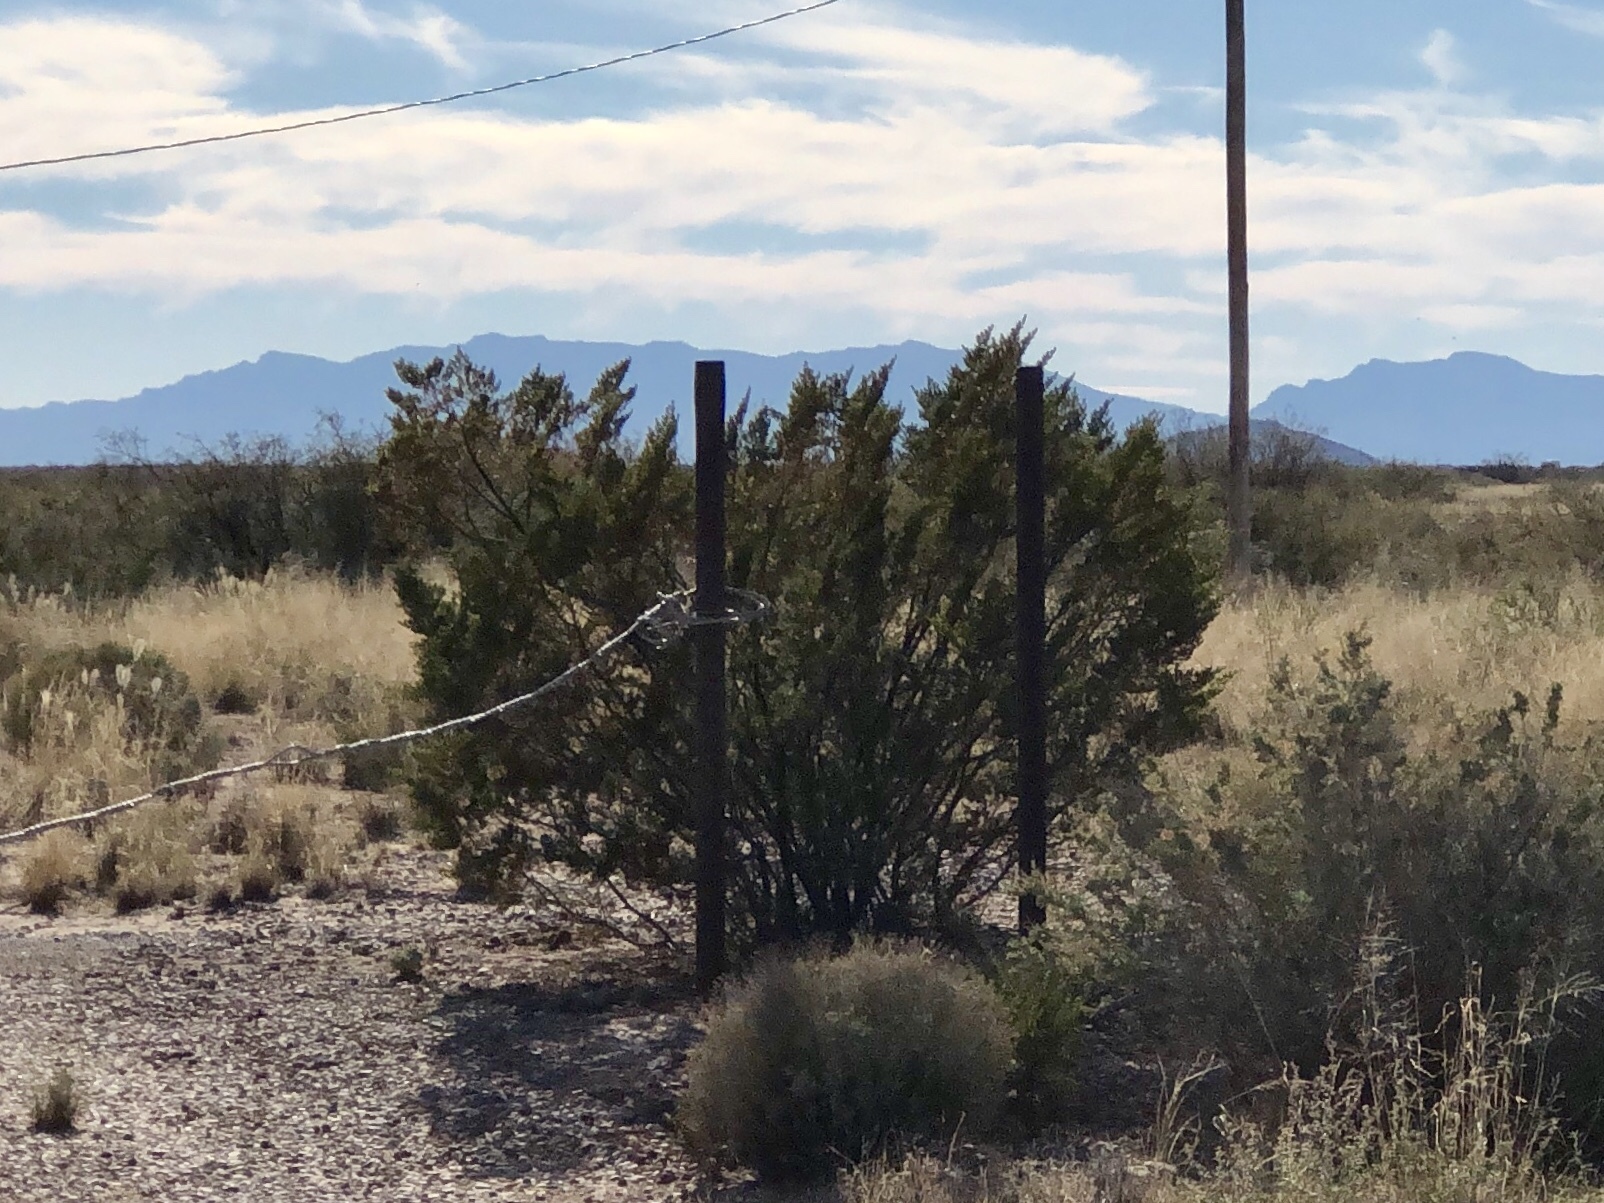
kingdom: Plantae
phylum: Tracheophyta
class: Magnoliopsida
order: Zygophyllales
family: Zygophyllaceae
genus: Larrea
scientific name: Larrea tridentata
